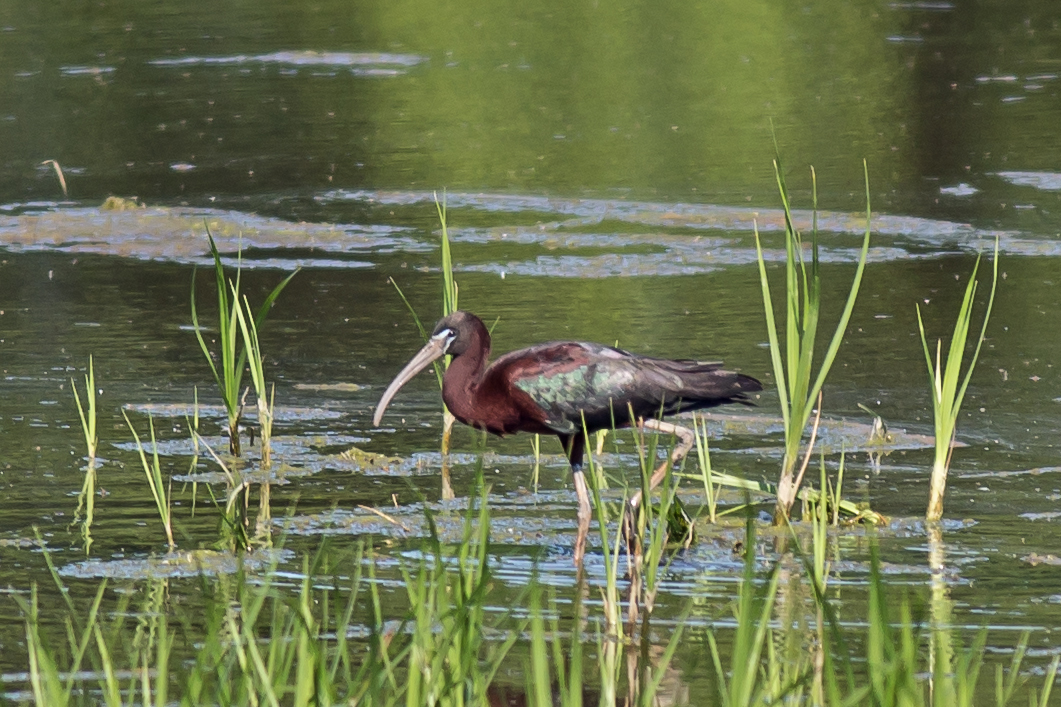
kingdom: Animalia
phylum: Chordata
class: Aves
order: Pelecaniformes
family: Threskiornithidae
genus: Plegadis
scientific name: Plegadis falcinellus
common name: Glossy ibis
